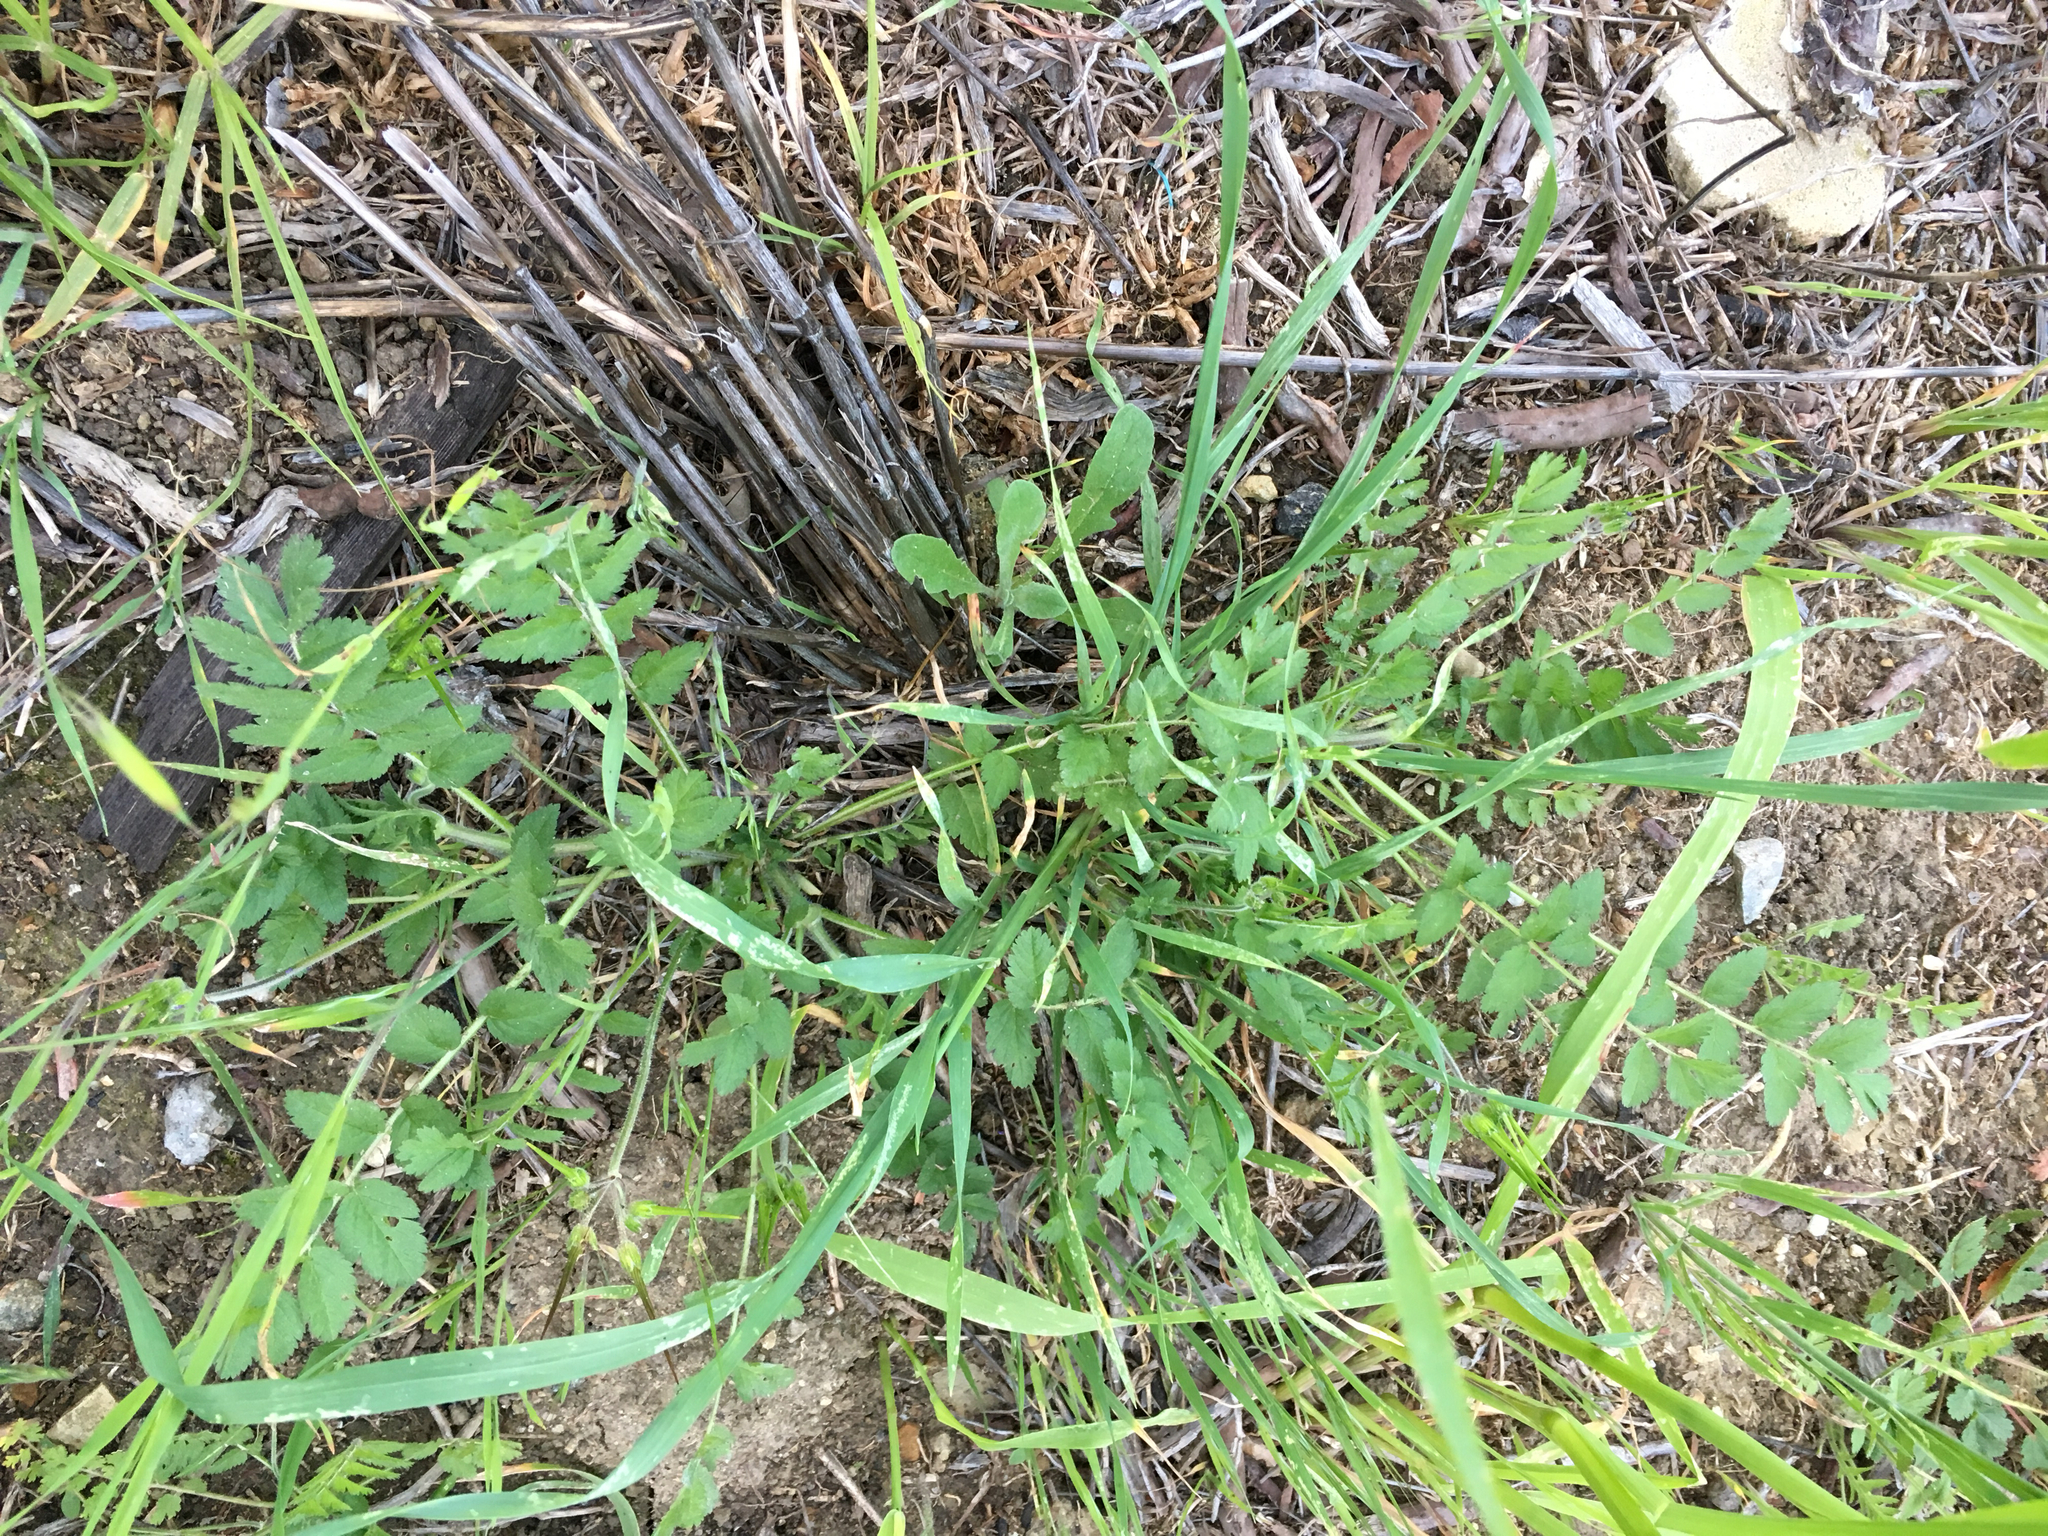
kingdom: Plantae
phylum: Tracheophyta
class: Magnoliopsida
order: Geraniales
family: Geraniaceae
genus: Erodium
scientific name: Erodium moschatum
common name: Musk stork's-bill
